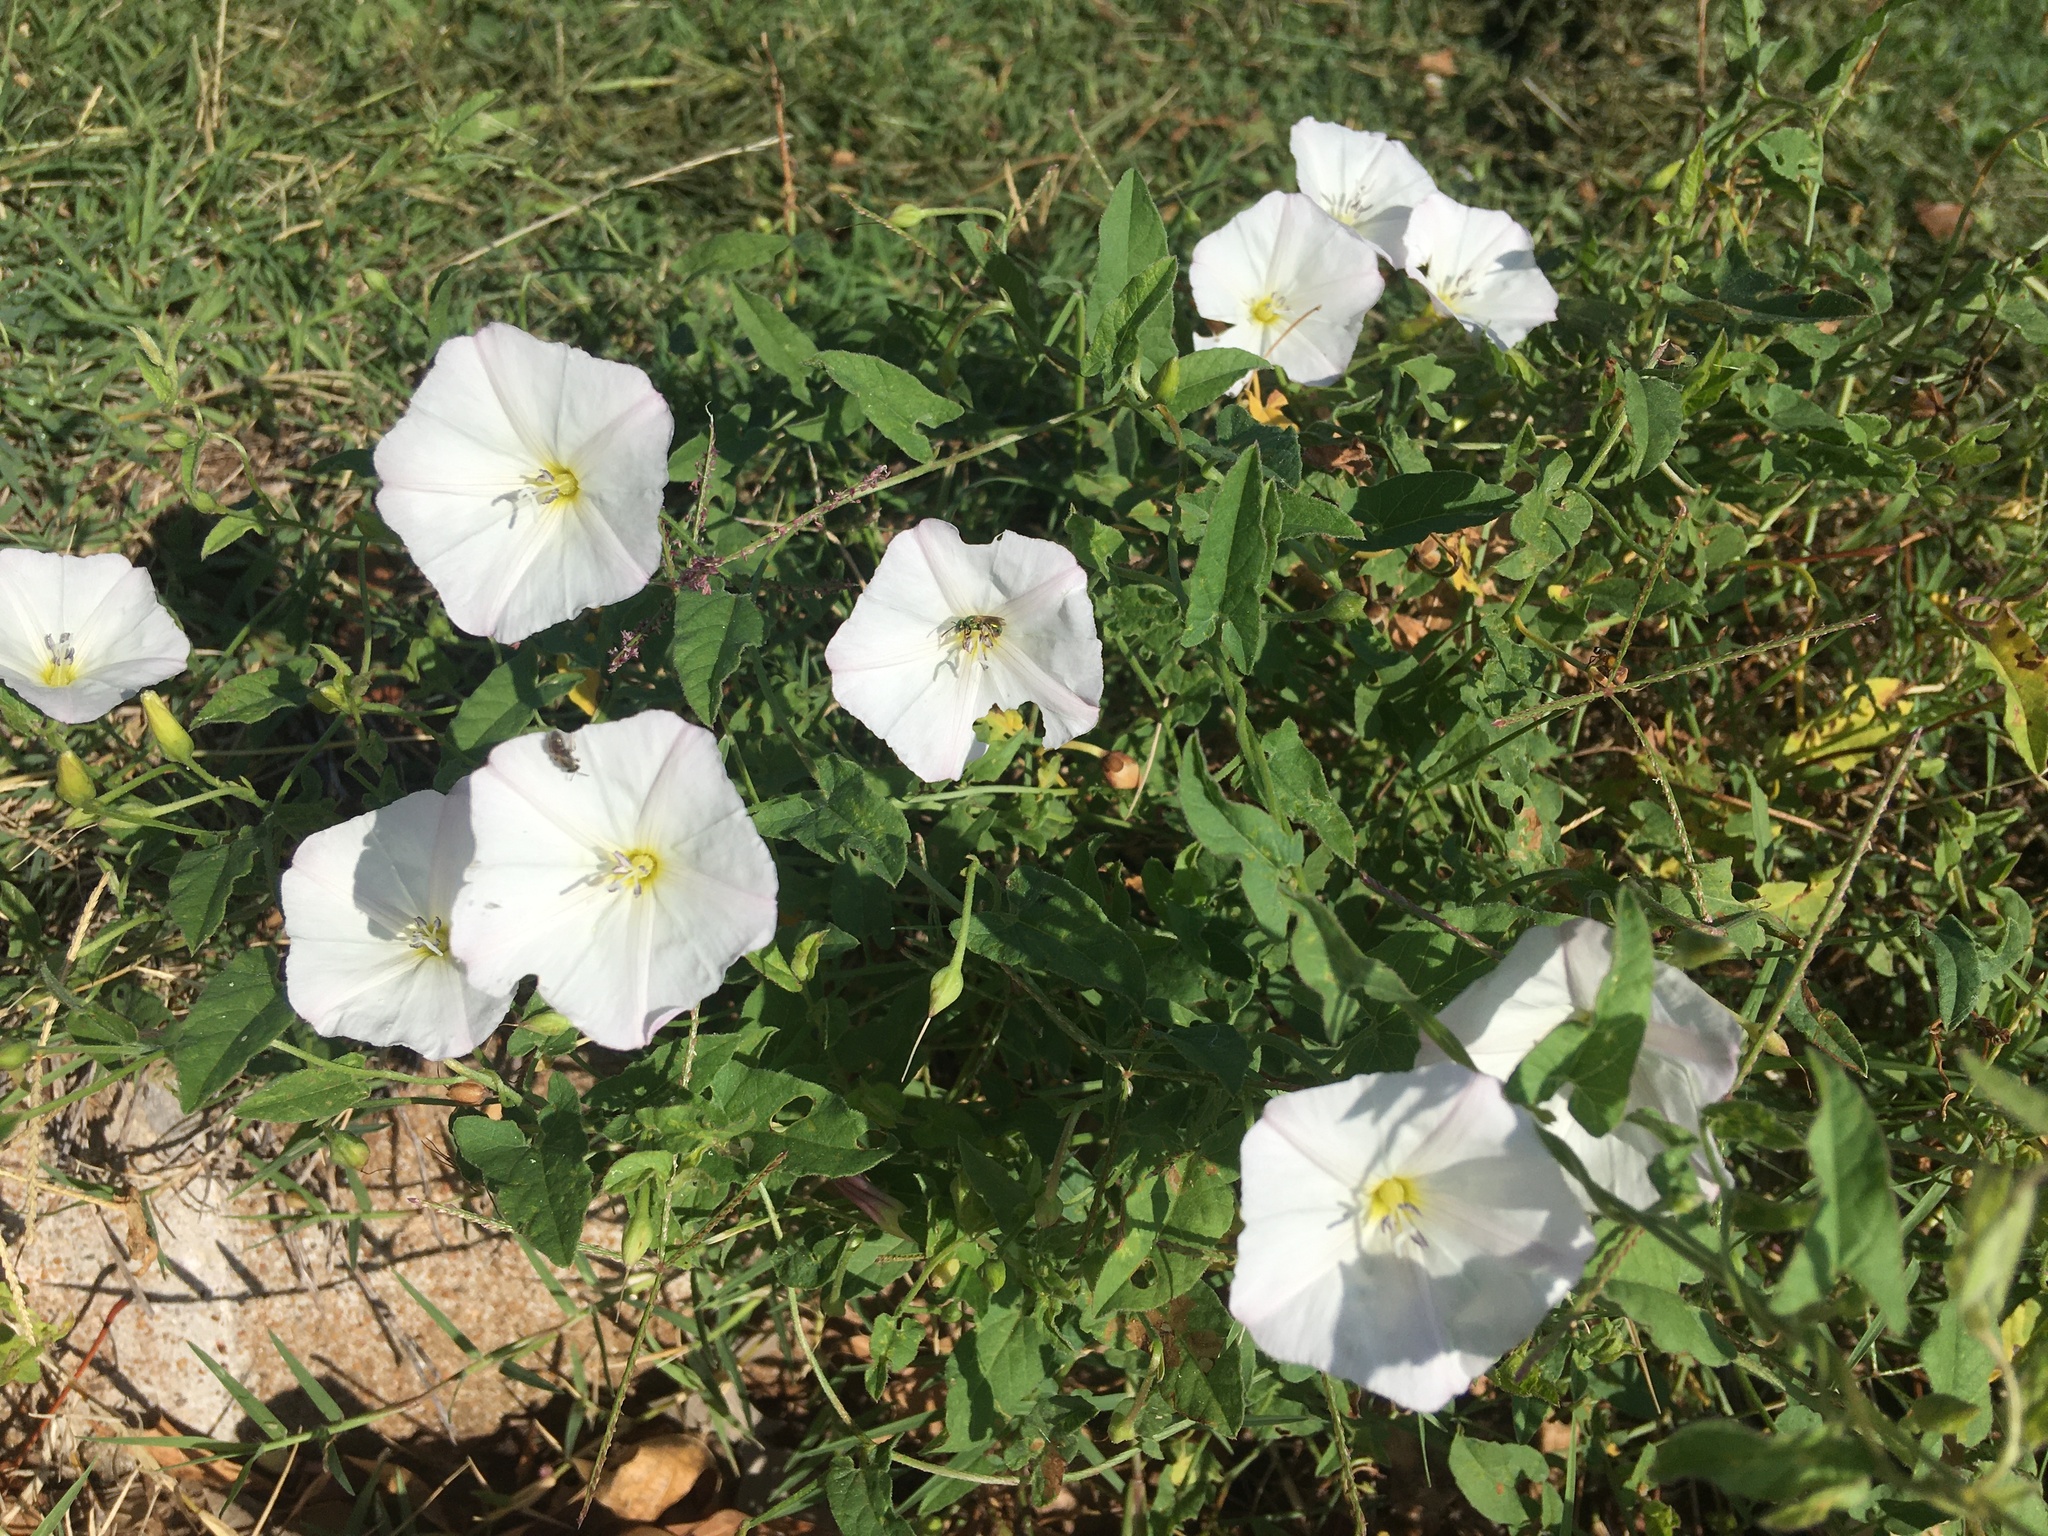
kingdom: Plantae
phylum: Tracheophyta
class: Magnoliopsida
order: Solanales
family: Convolvulaceae
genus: Convolvulus
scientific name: Convolvulus arvensis
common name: Field bindweed
